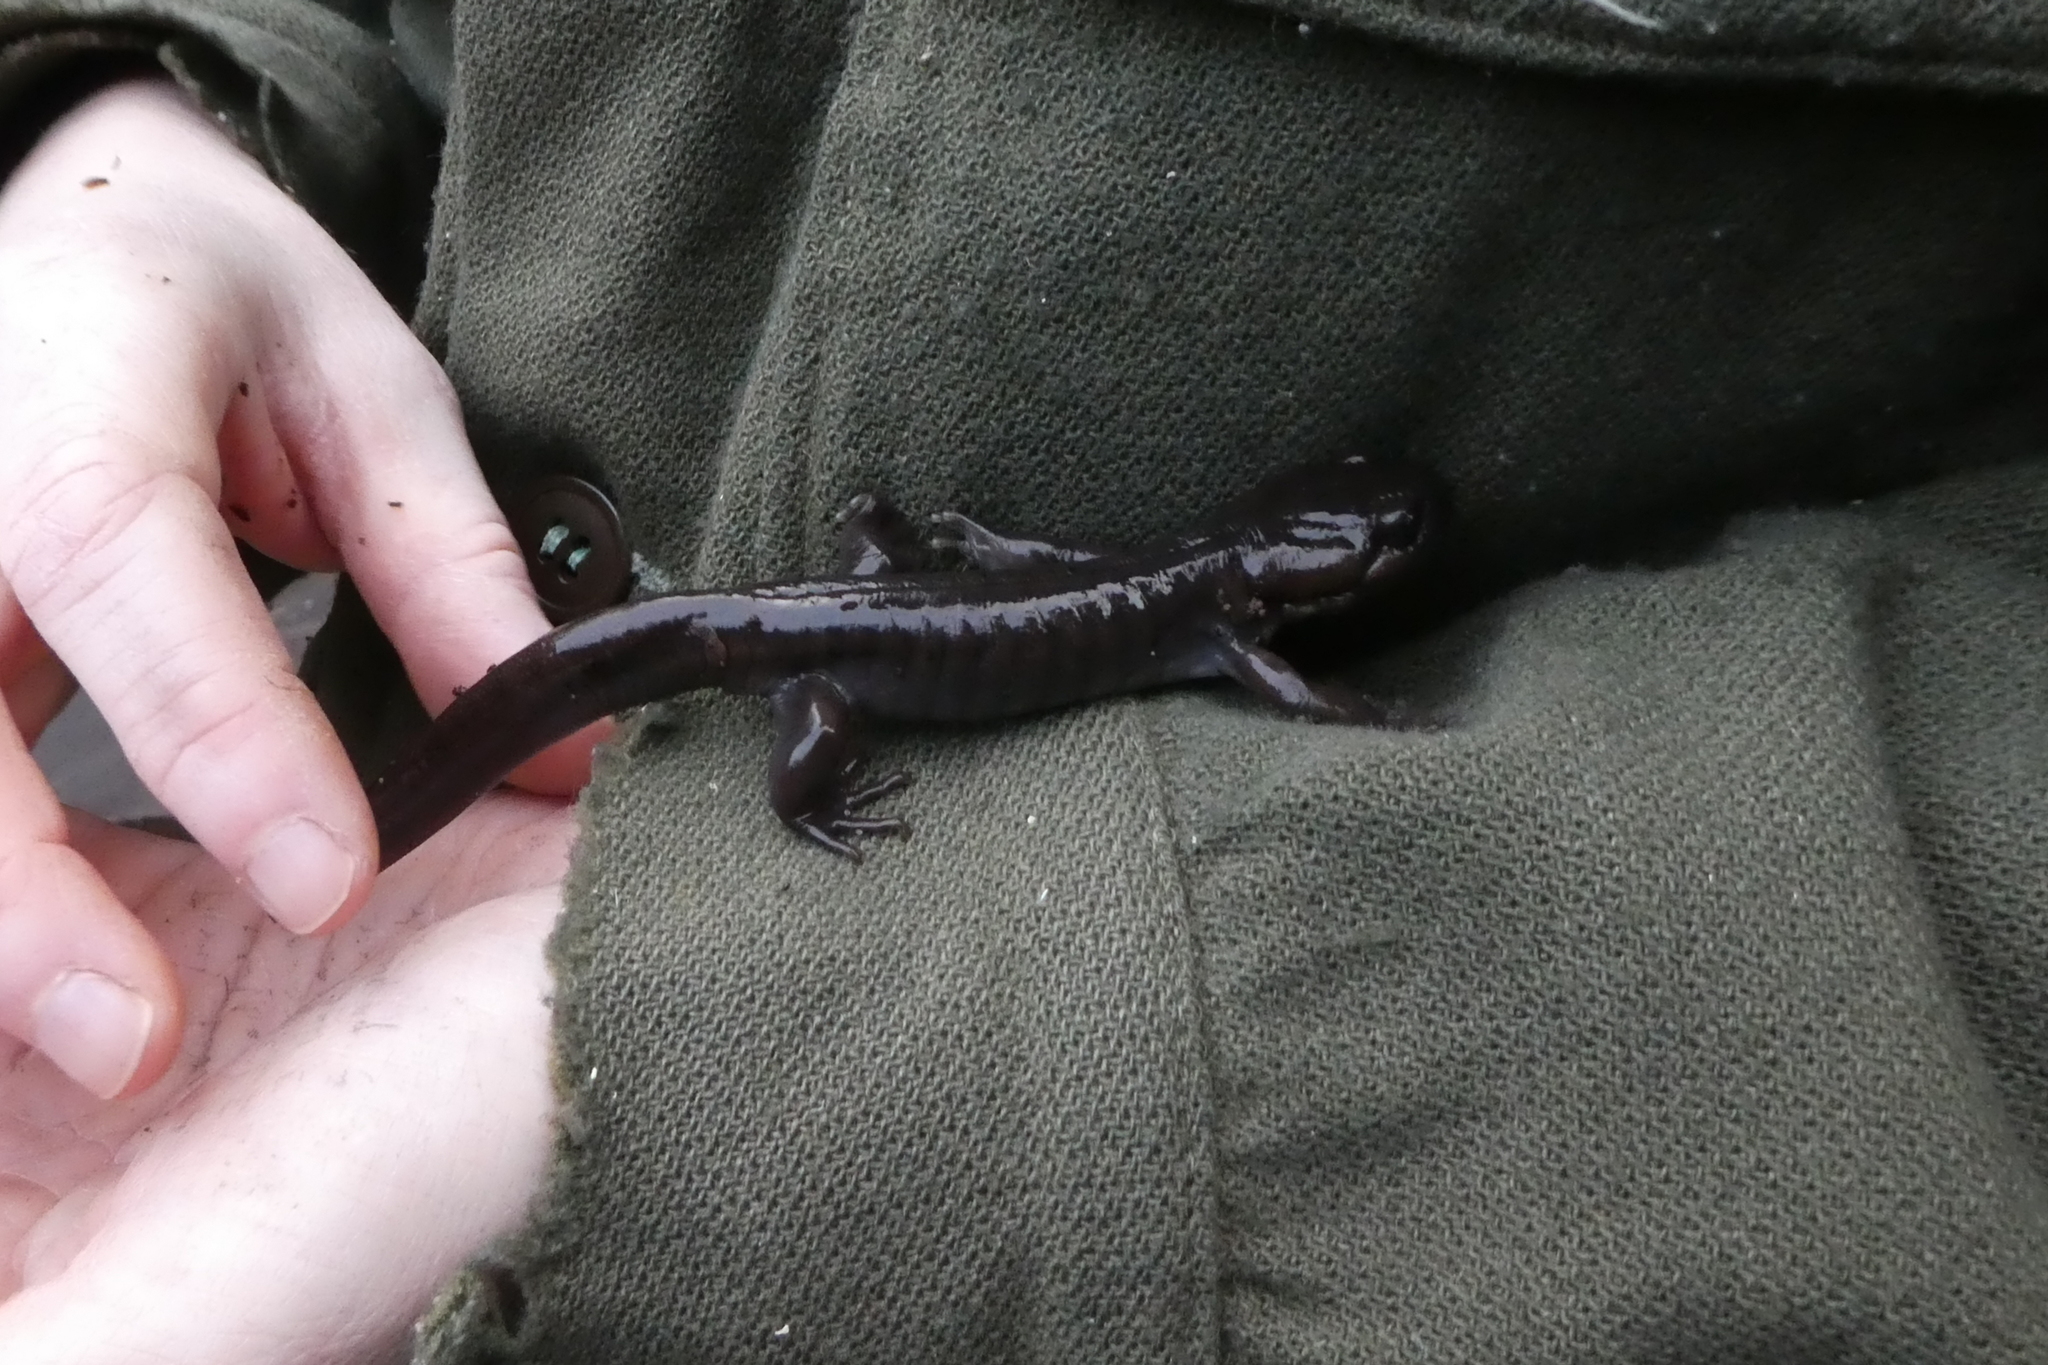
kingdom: Animalia
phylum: Chordata
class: Amphibia
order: Caudata
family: Ambystomatidae
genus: Ambystoma
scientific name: Ambystoma gracile
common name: Northwestern salamander
